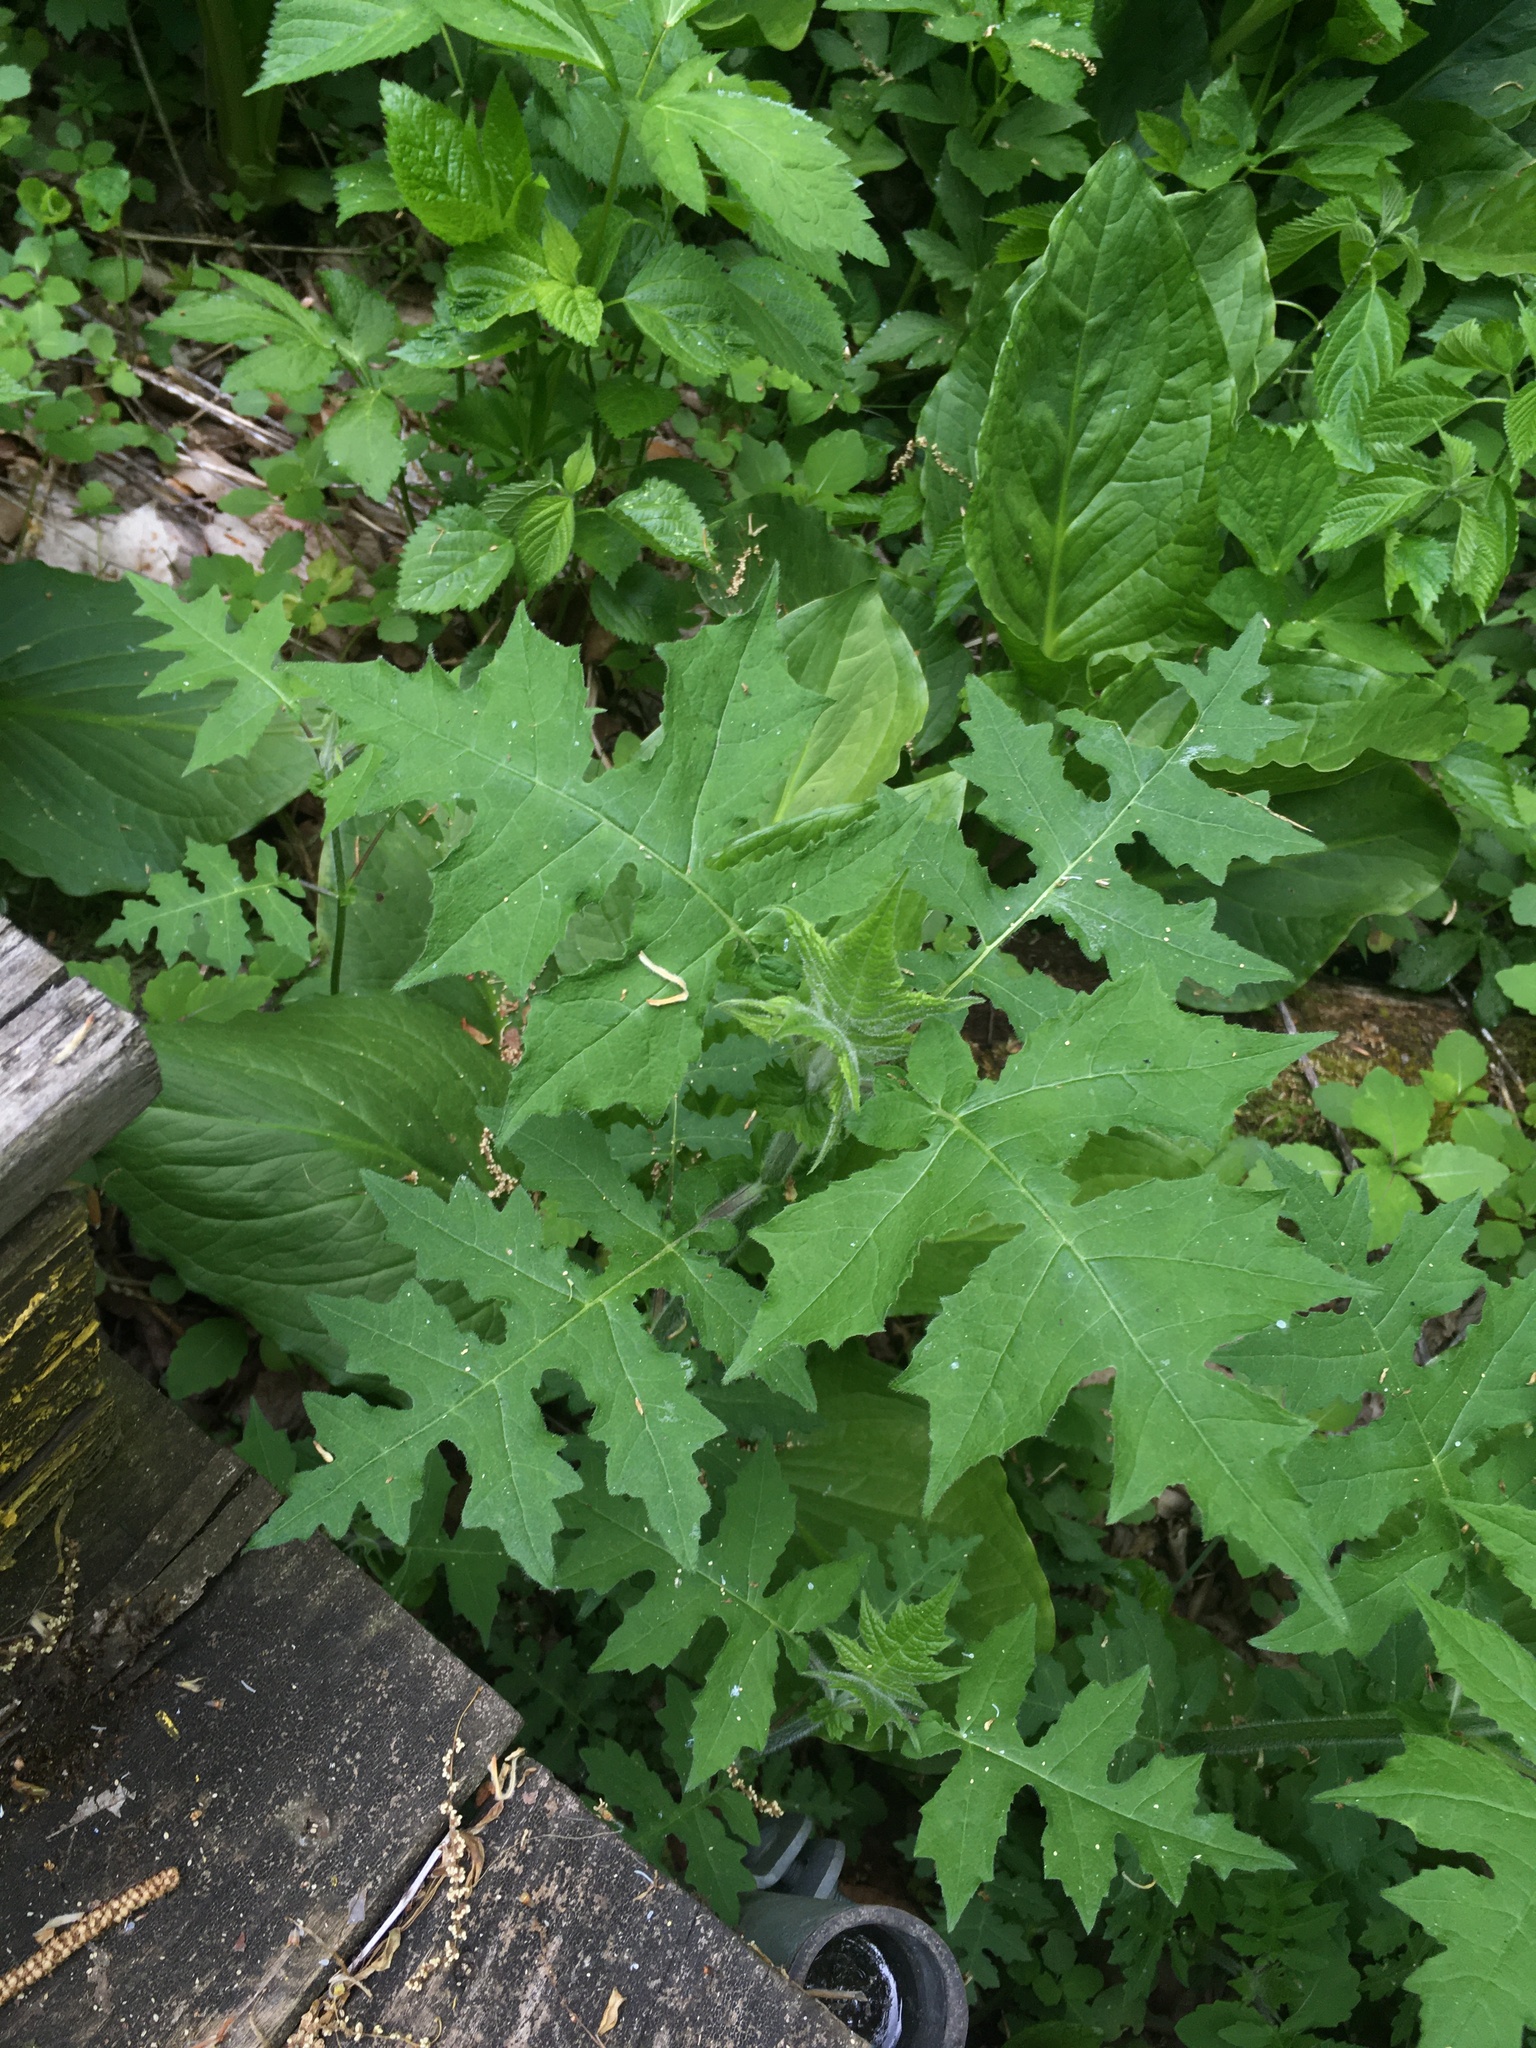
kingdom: Plantae
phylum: Tracheophyta
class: Magnoliopsida
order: Asterales
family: Asteraceae
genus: Polymnia
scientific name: Polymnia canadensis
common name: Pale-flowered leafcup
